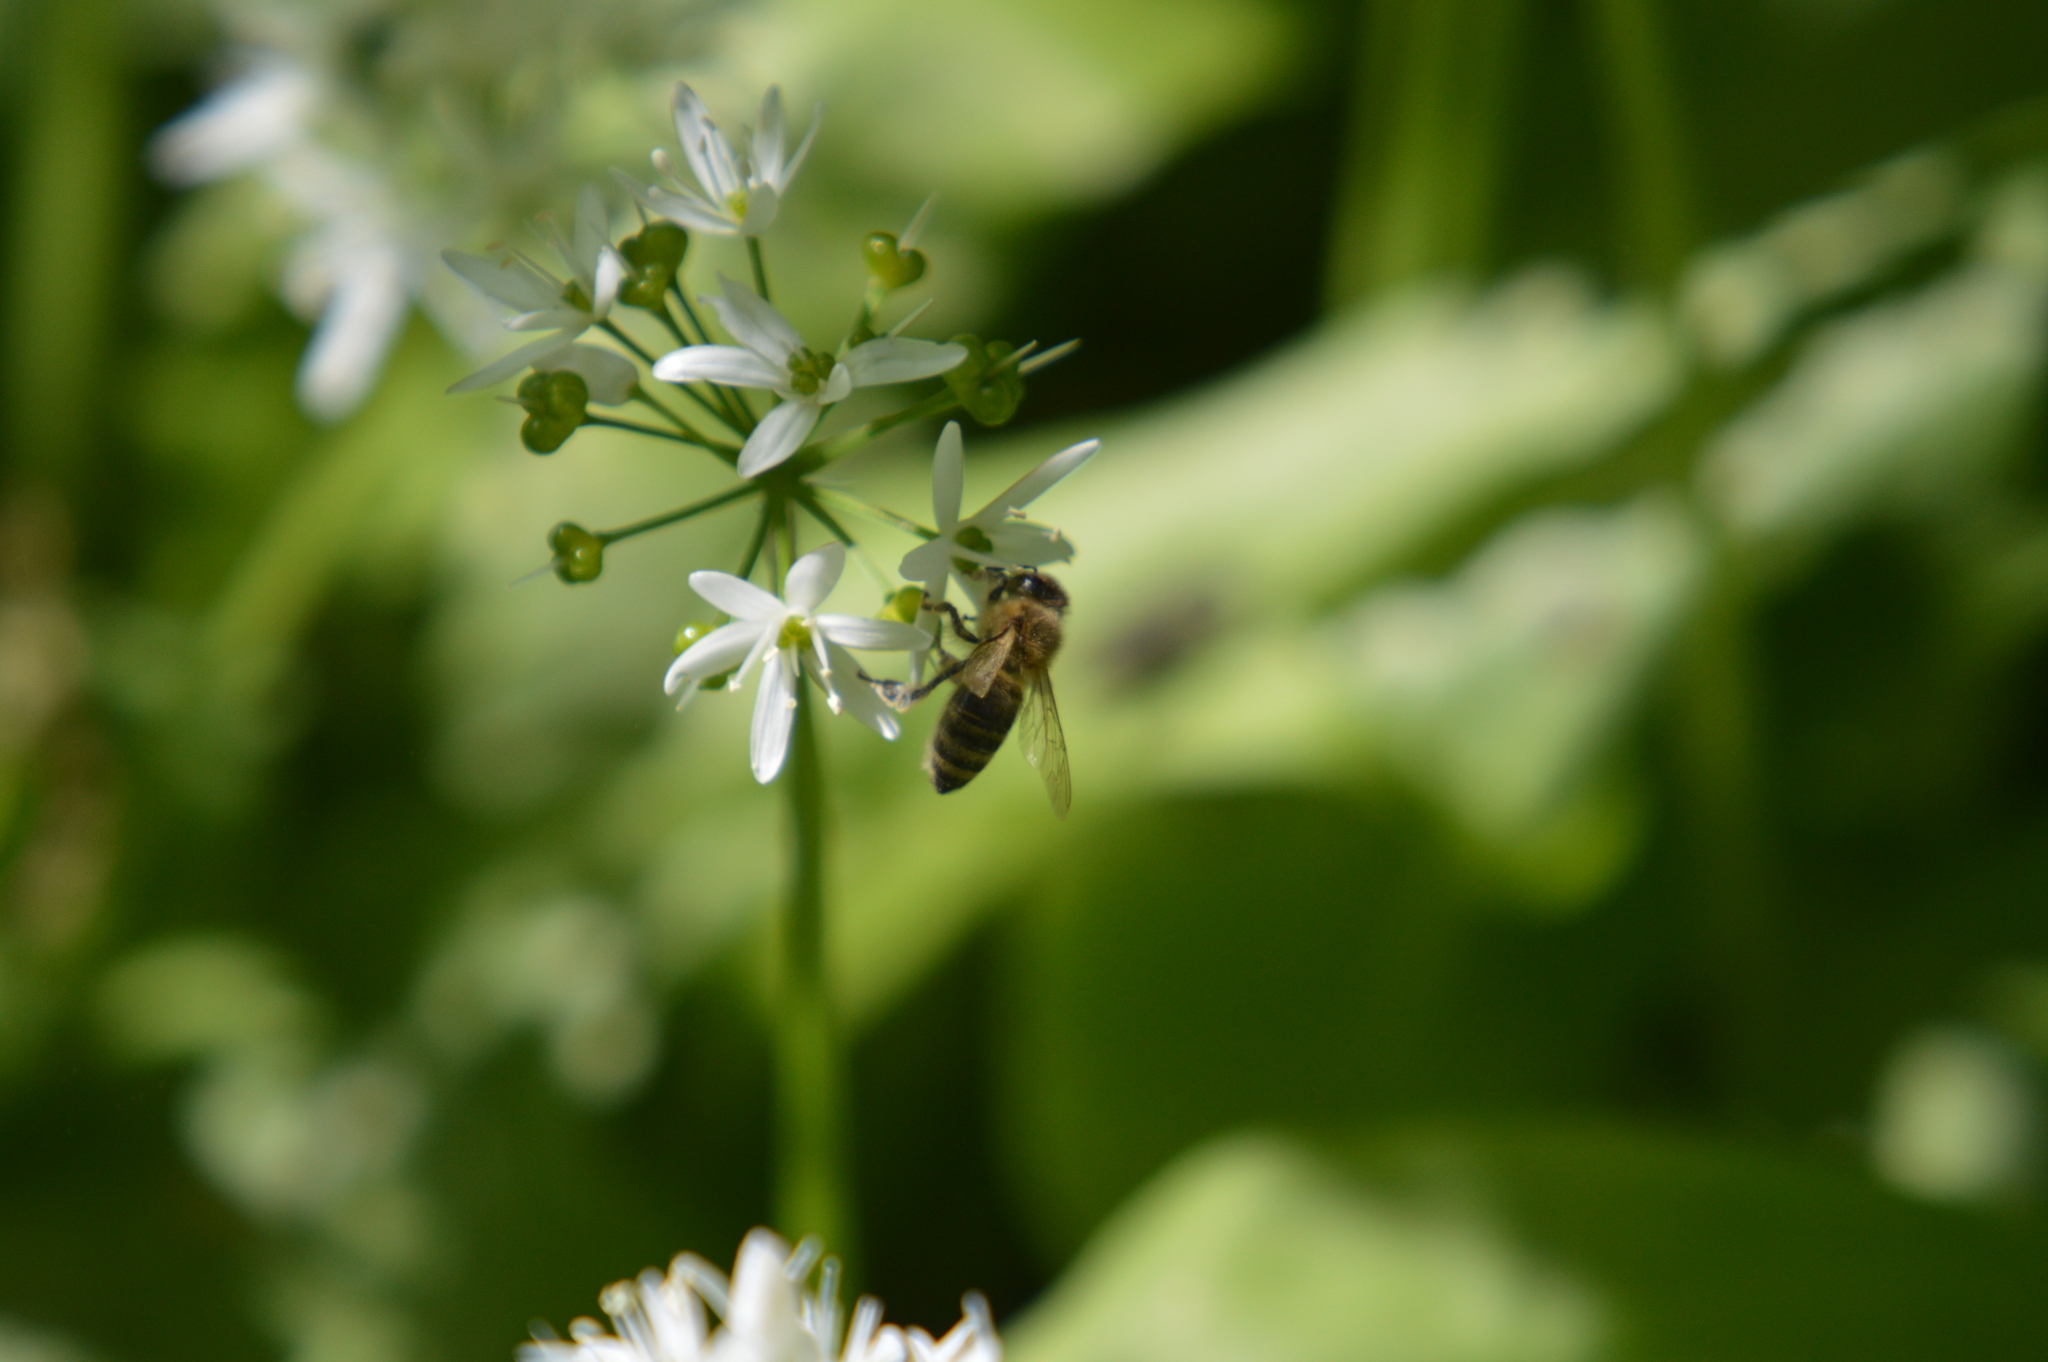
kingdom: Animalia
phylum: Arthropoda
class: Insecta
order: Hymenoptera
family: Apidae
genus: Apis
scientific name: Apis mellifera
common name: Honey bee
